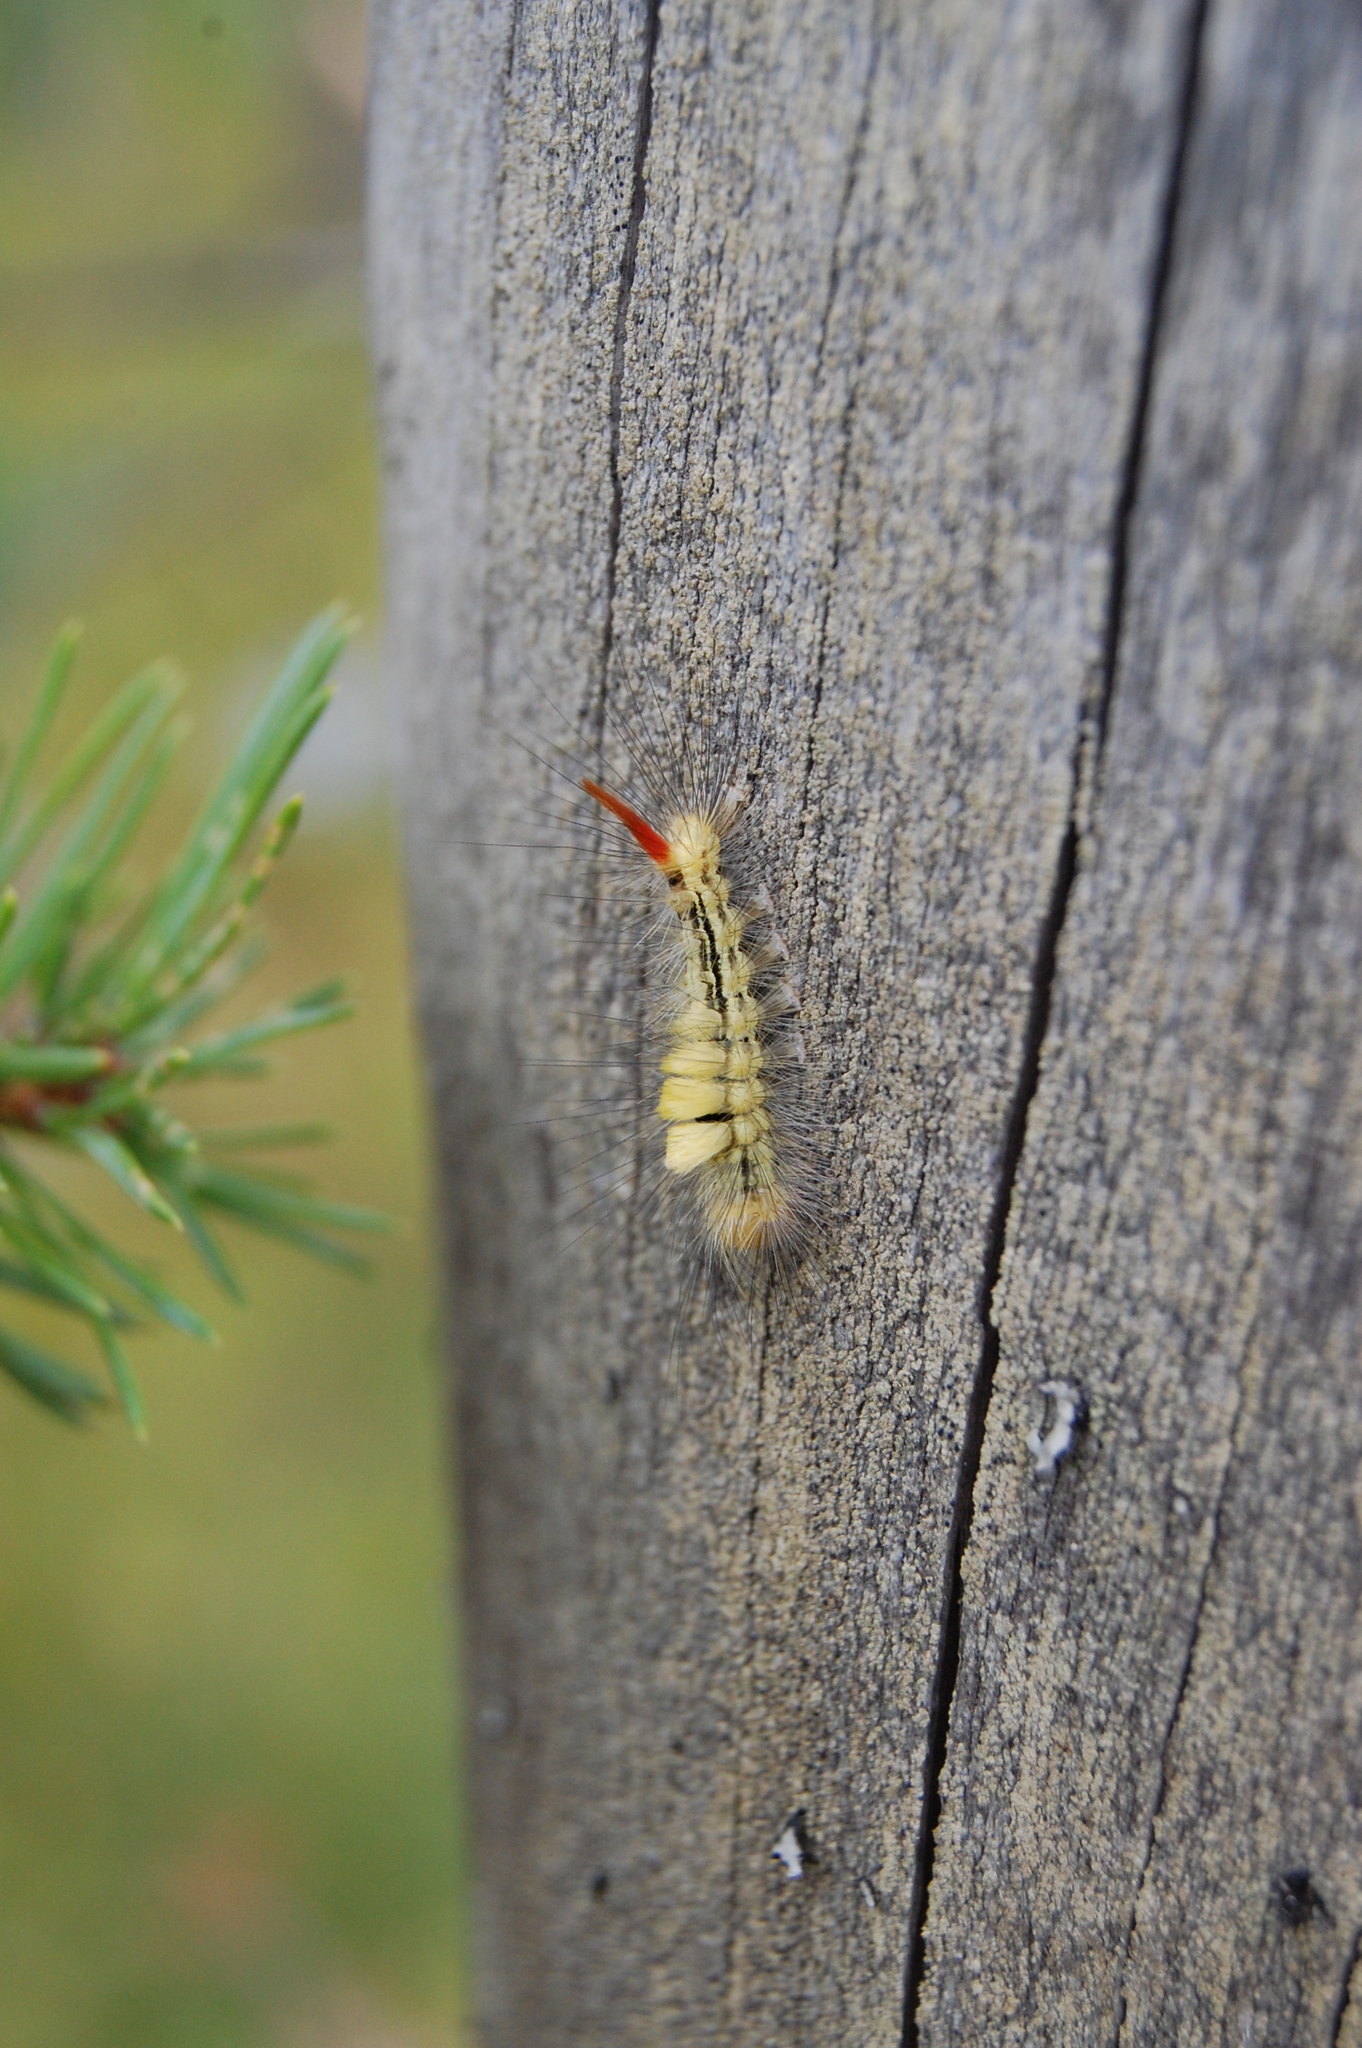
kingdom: Animalia
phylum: Arthropoda
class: Insecta
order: Lepidoptera
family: Erebidae
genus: Calliteara
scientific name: Calliteara pudibunda
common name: Pale tussock
